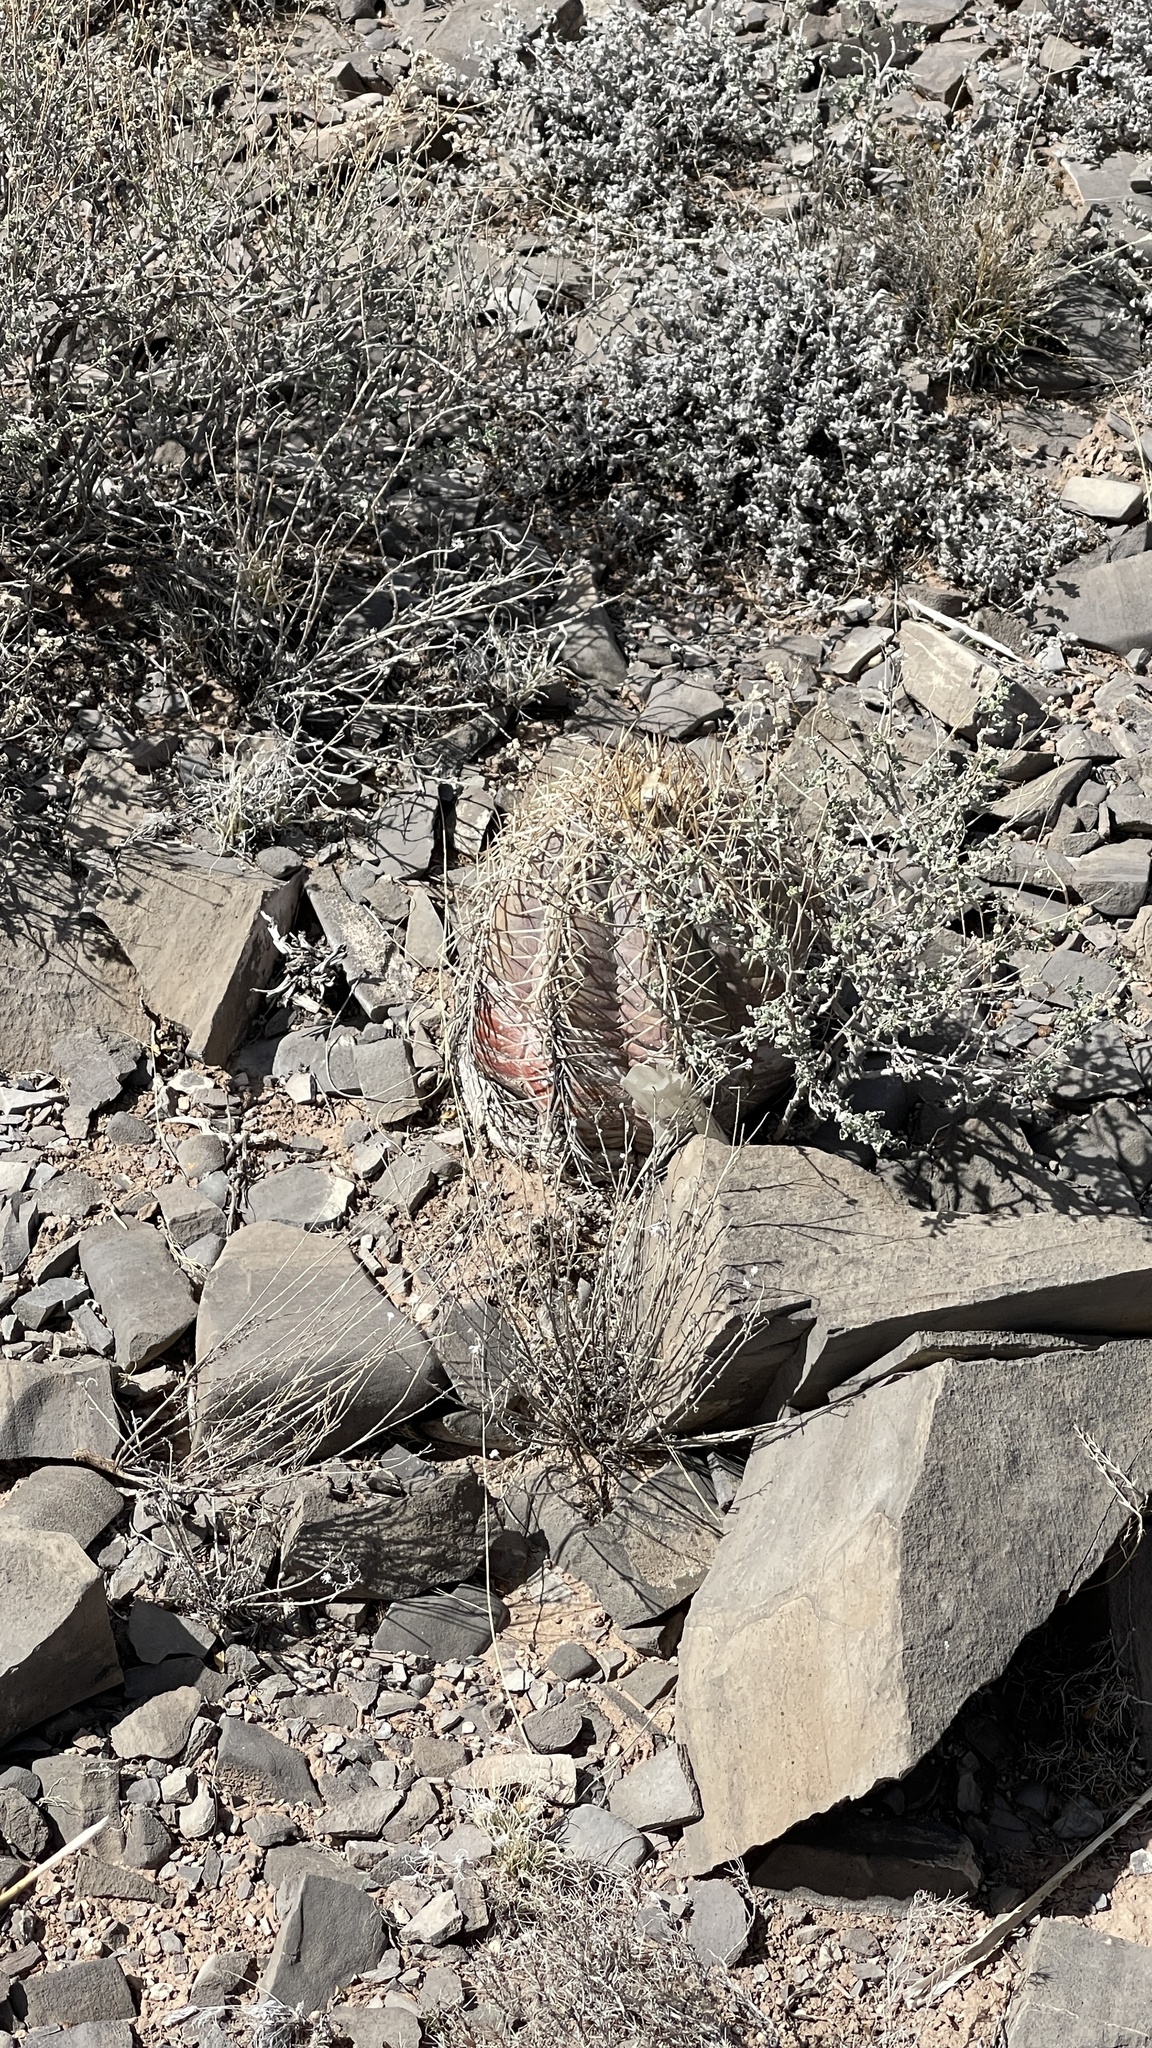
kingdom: Plantae
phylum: Tracheophyta
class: Magnoliopsida
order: Caryophyllales
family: Cactaceae
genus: Echinocactus
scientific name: Echinocactus horizonthalonius
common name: Devilshead
